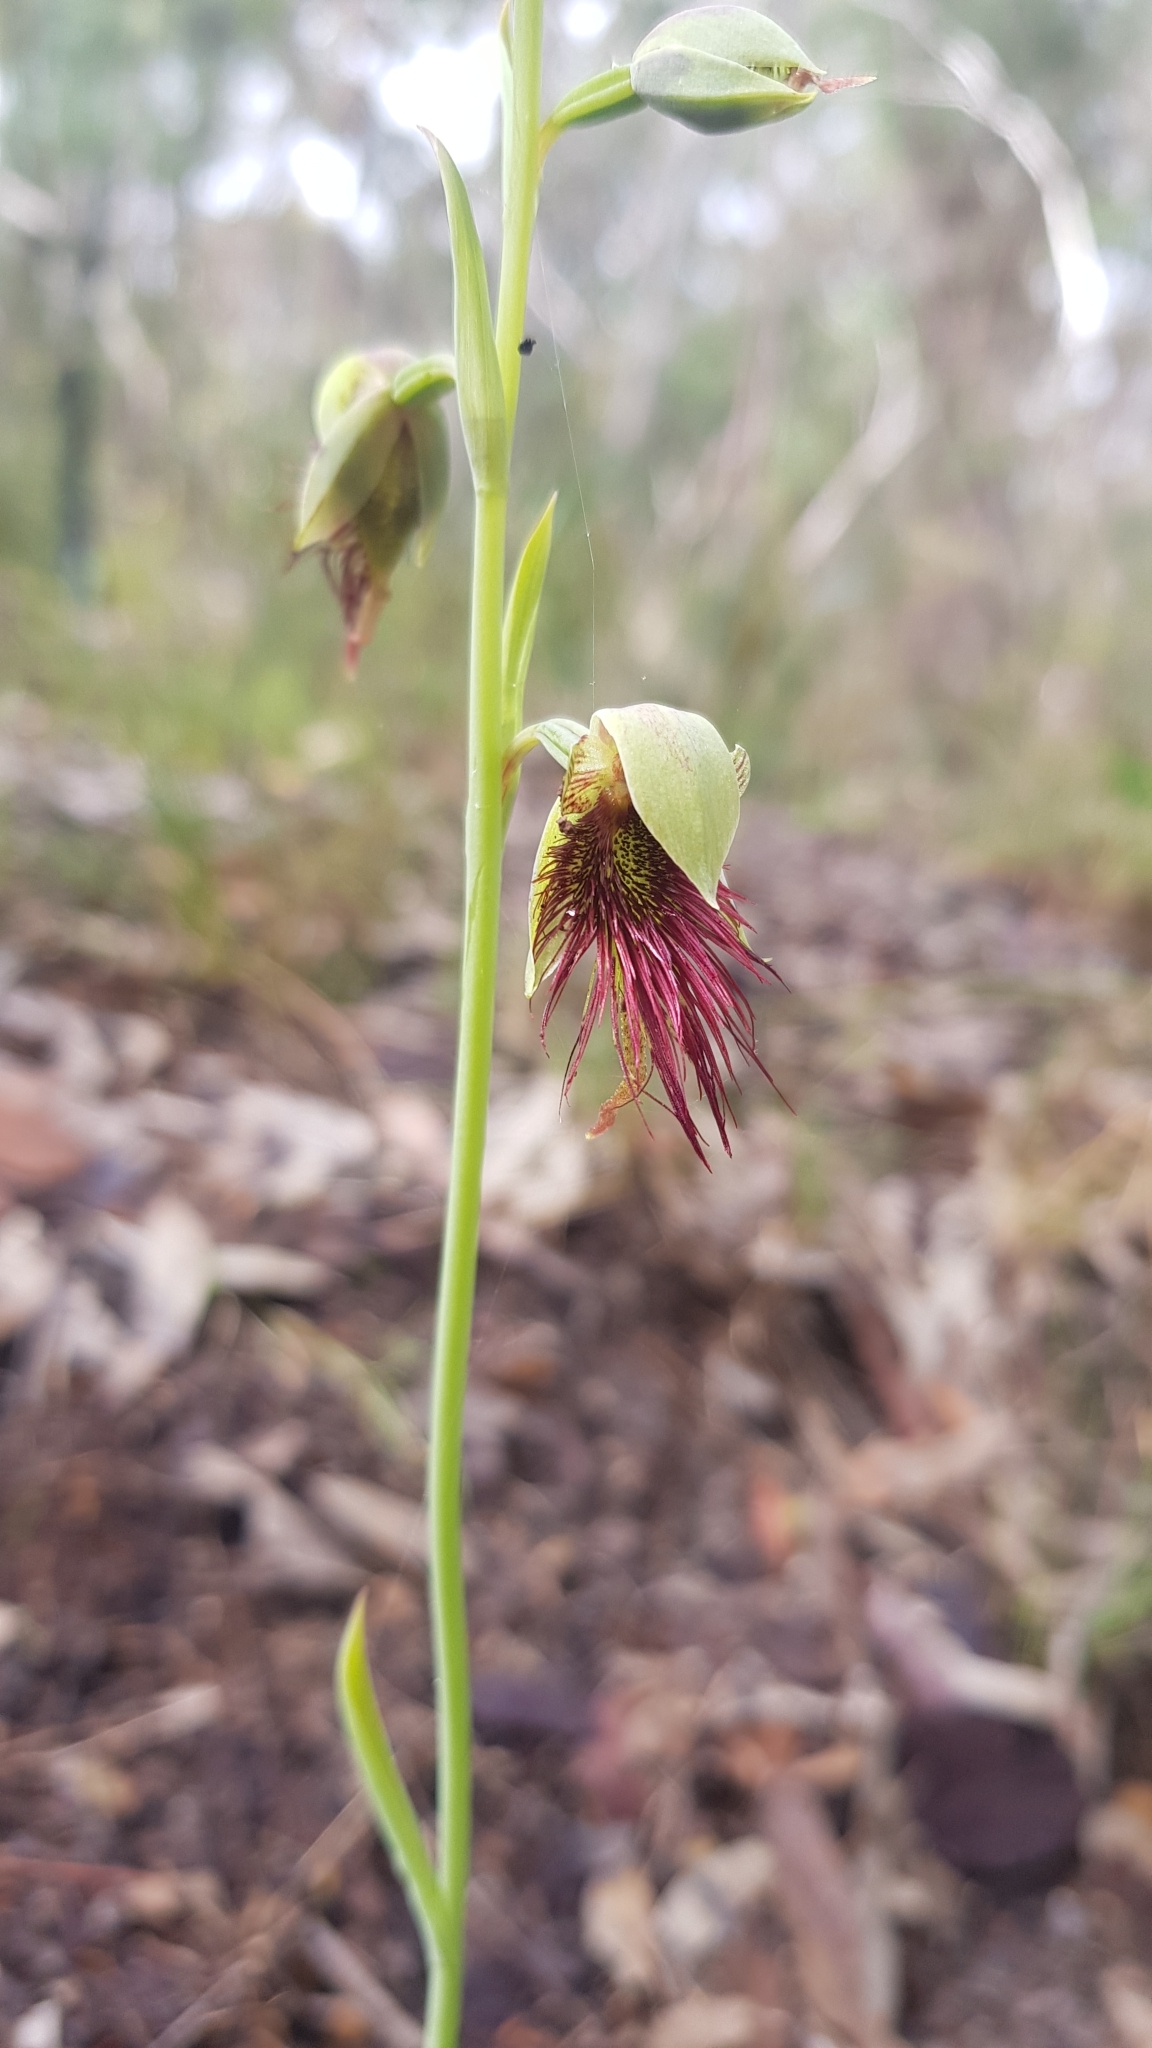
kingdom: Plantae
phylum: Tracheophyta
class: Liliopsida
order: Asparagales
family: Orchidaceae
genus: Calochilus
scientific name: Calochilus paludosus
